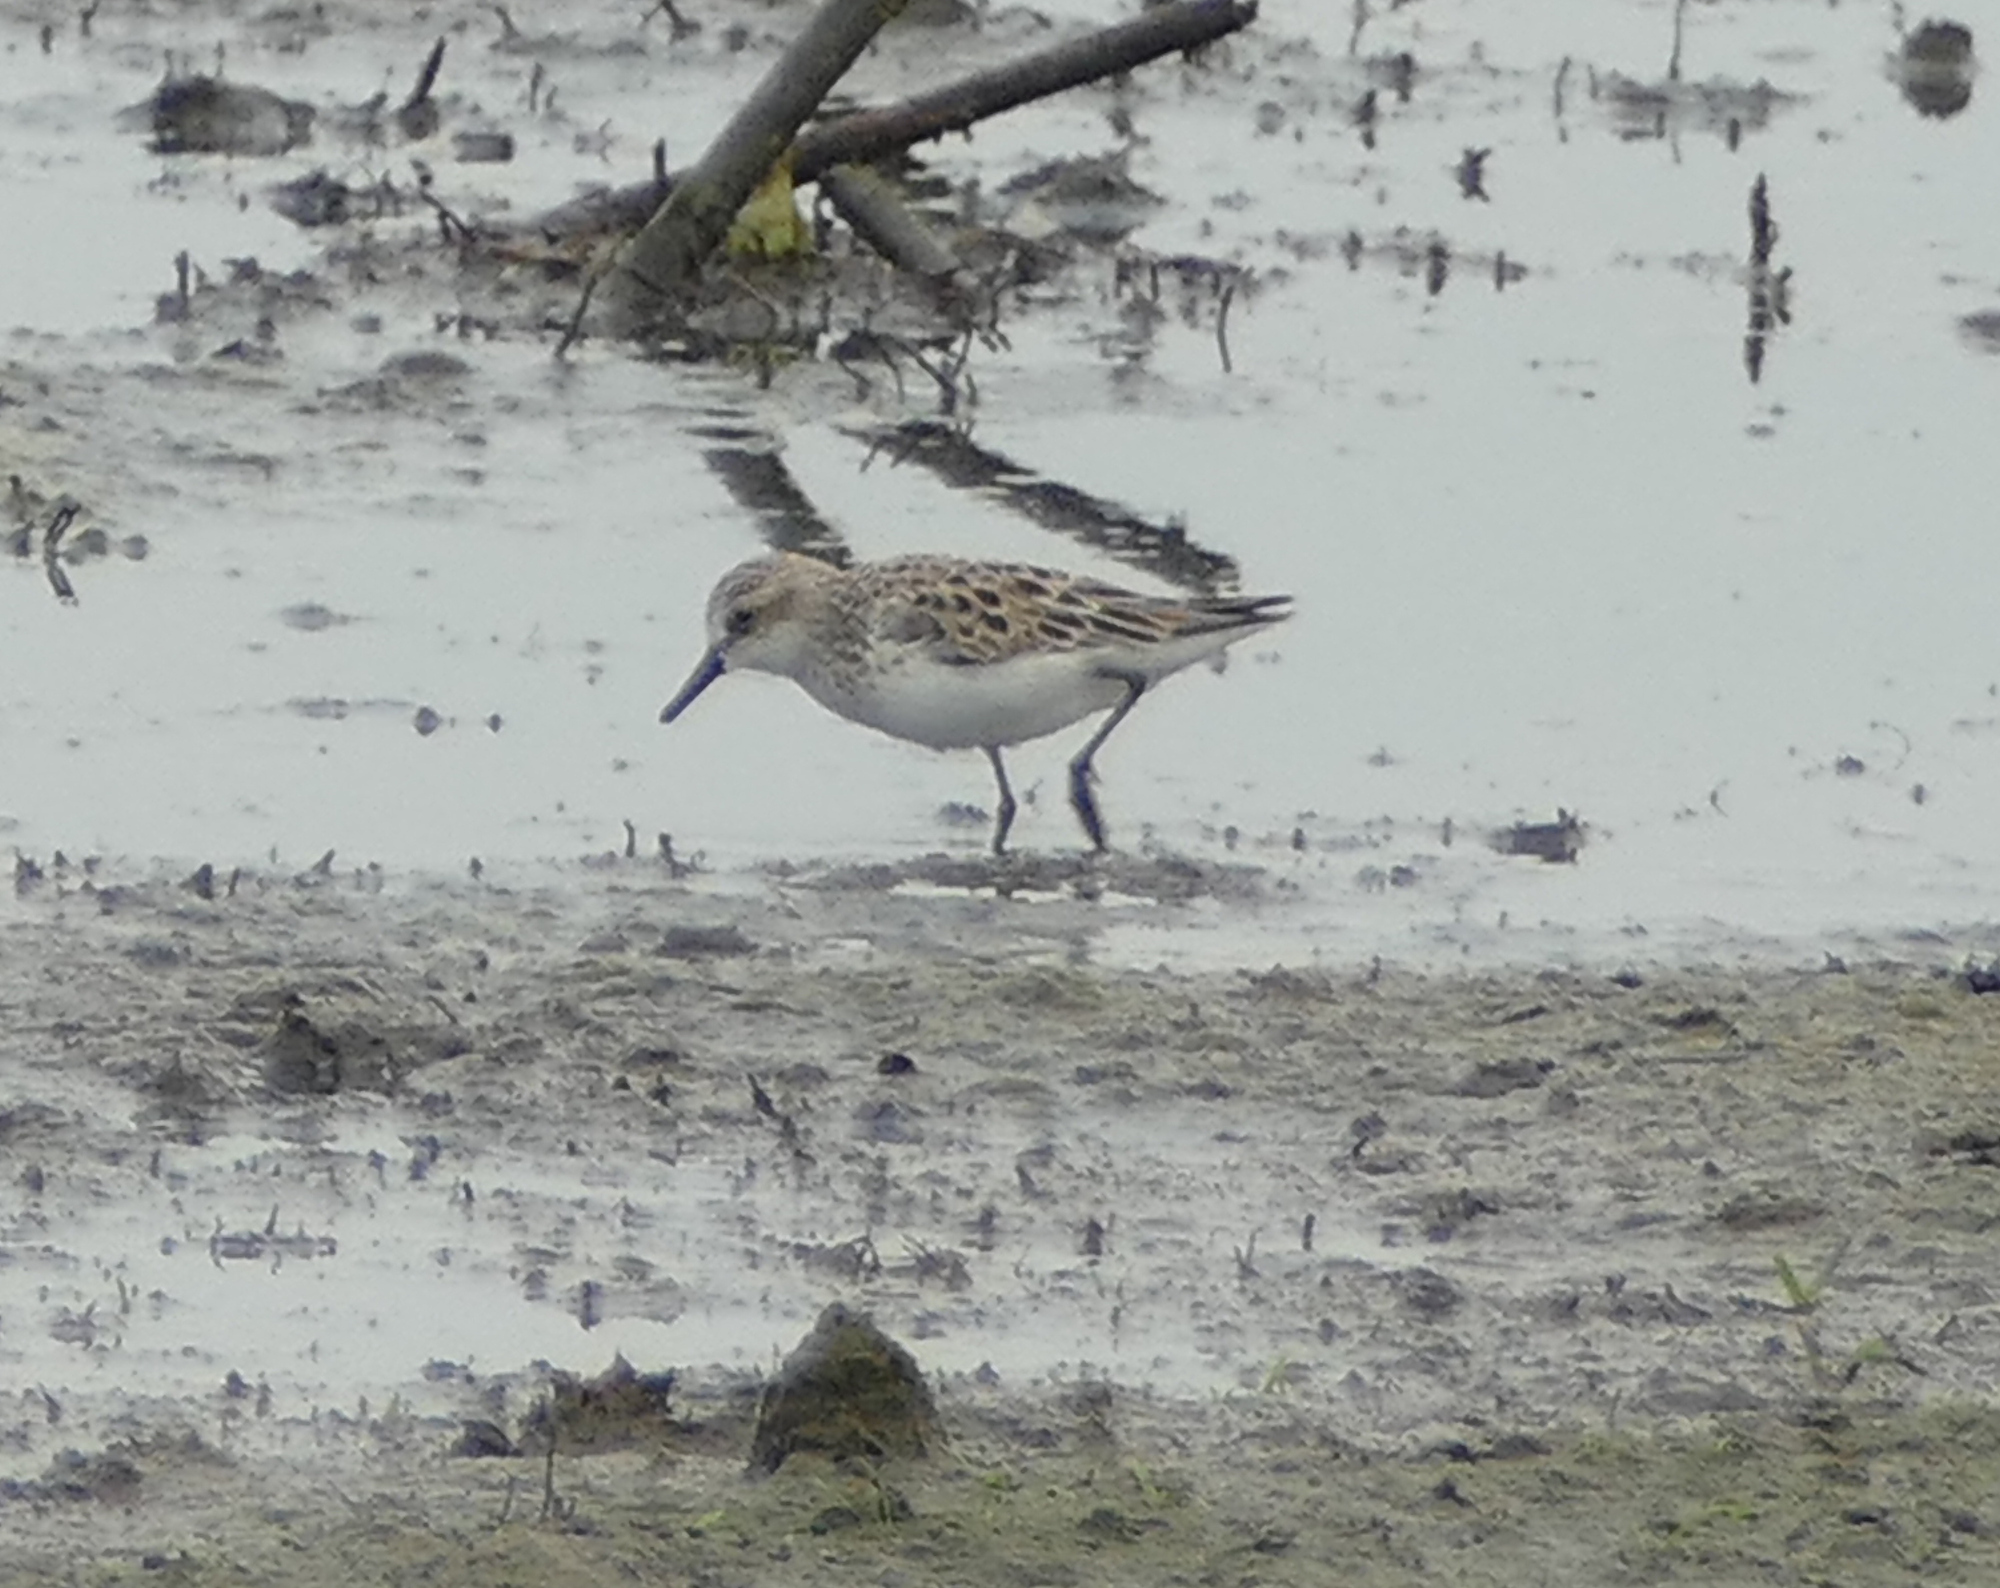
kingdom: Animalia
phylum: Chordata
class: Aves
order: Charadriiformes
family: Scolopacidae
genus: Calidris
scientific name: Calidris pusilla
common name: Semipalmated sandpiper
